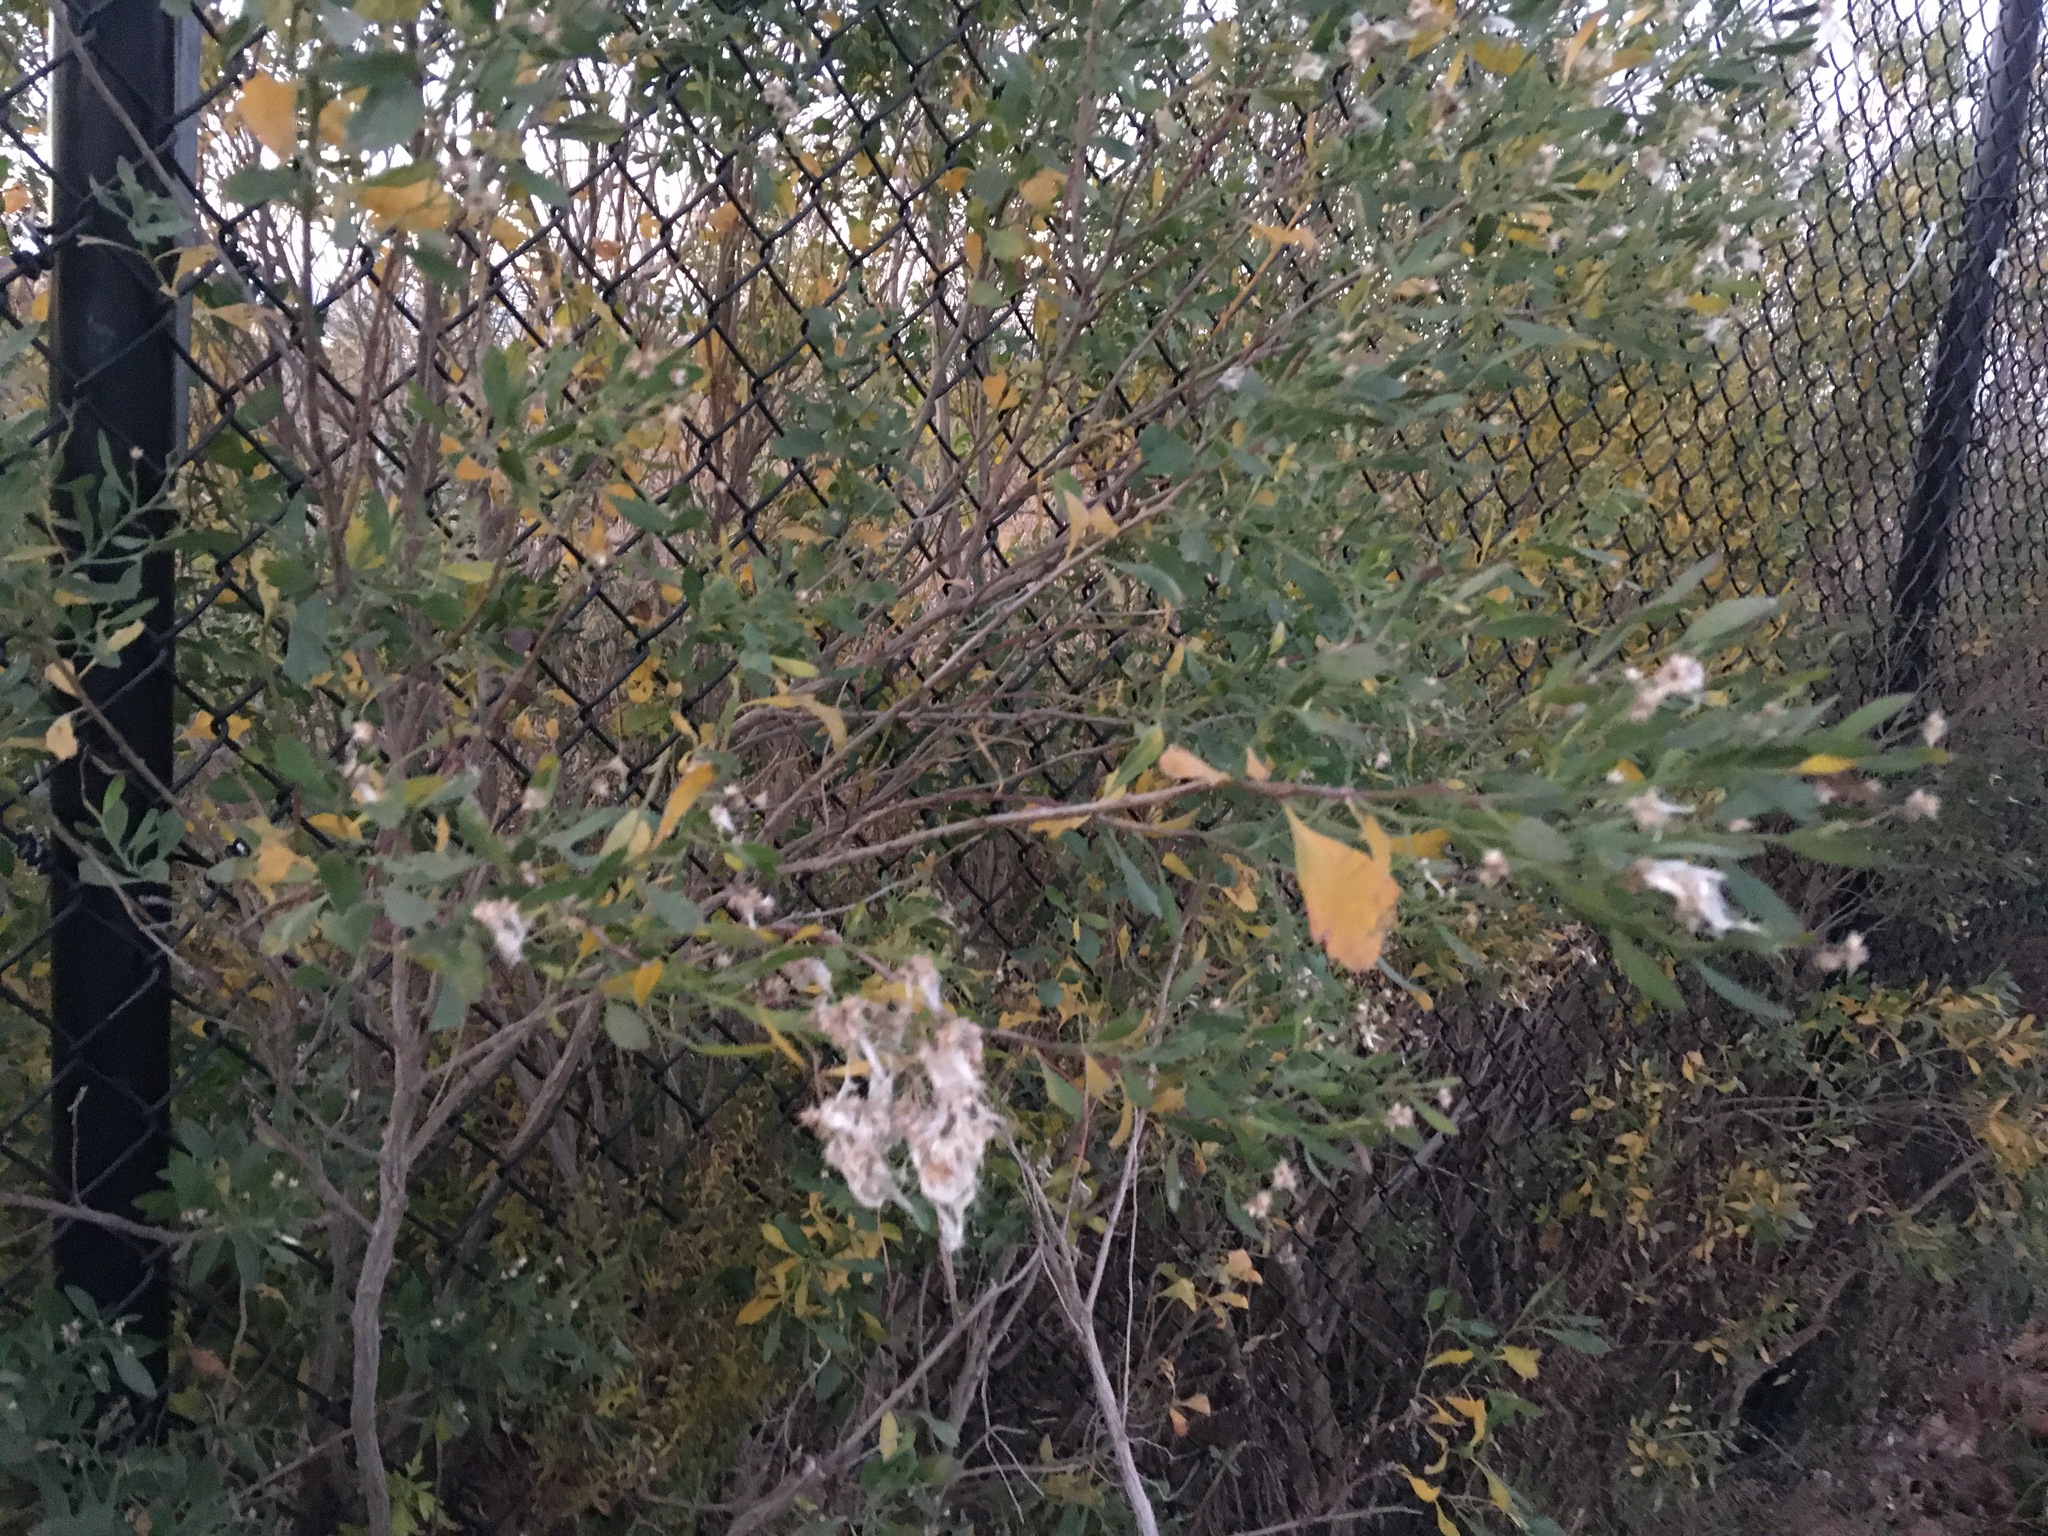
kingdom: Plantae
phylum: Tracheophyta
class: Magnoliopsida
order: Asterales
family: Asteraceae
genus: Baccharis
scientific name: Baccharis halimifolia
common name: Eastern baccharis
